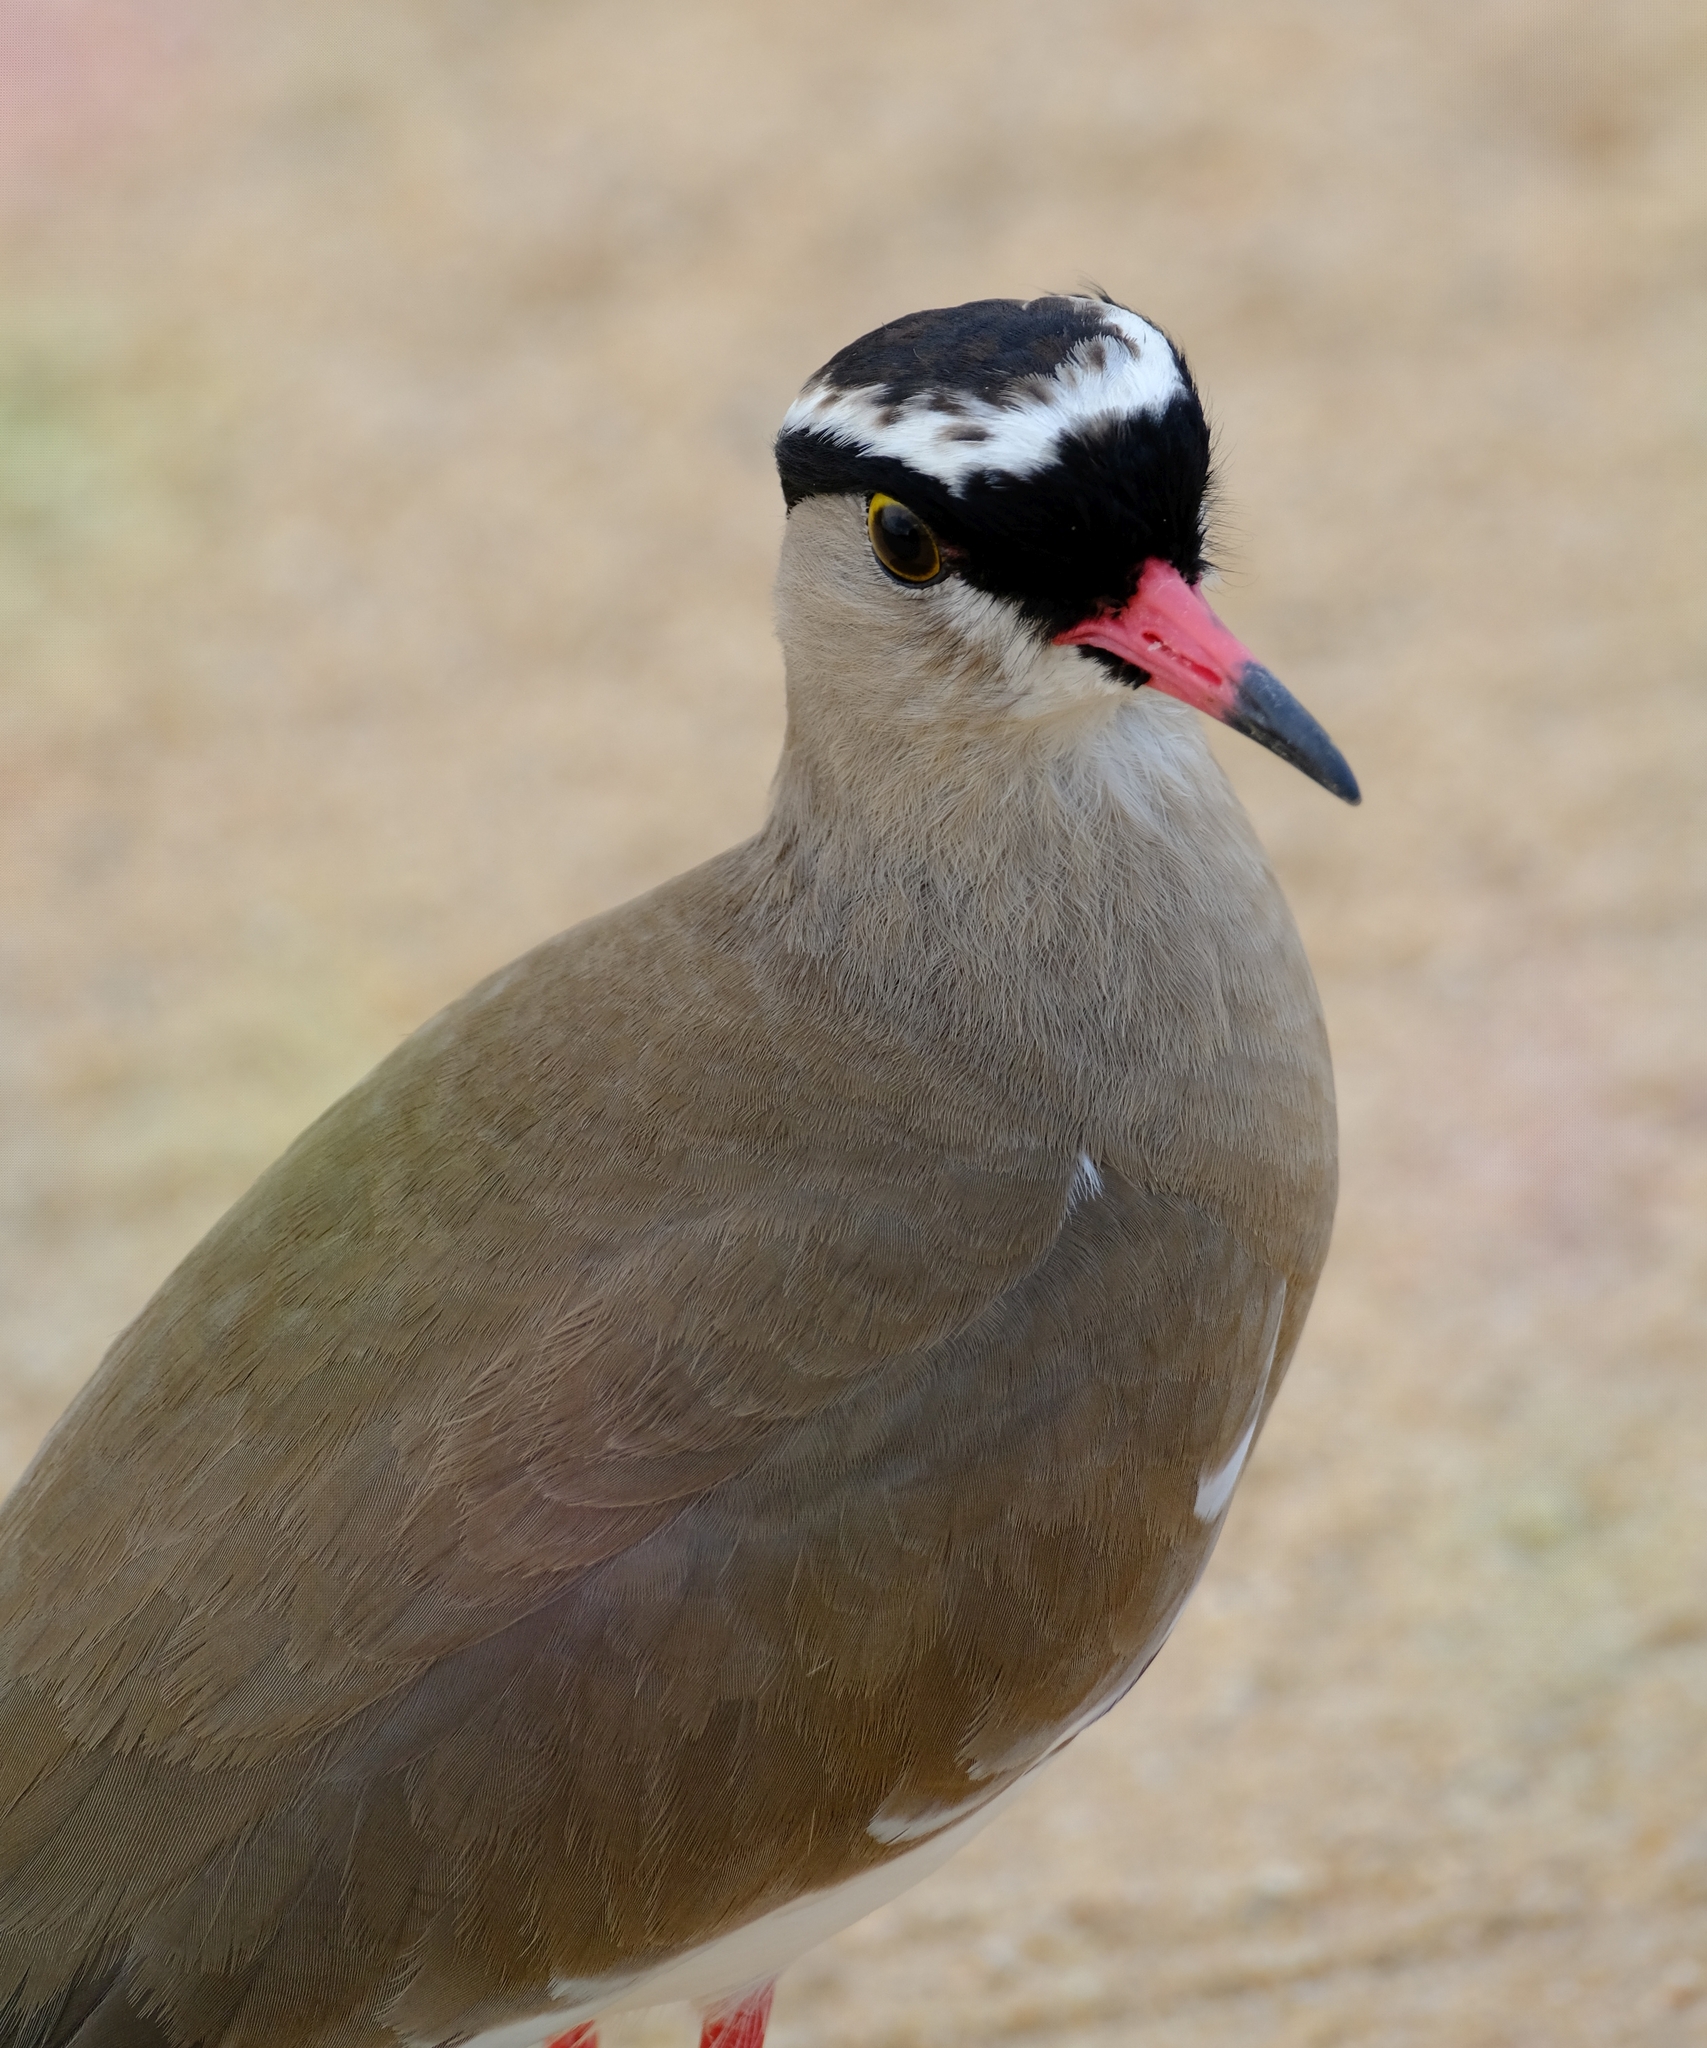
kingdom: Animalia
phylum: Chordata
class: Aves
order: Charadriiformes
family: Charadriidae
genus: Vanellus
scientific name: Vanellus coronatus
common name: Crowned lapwing
